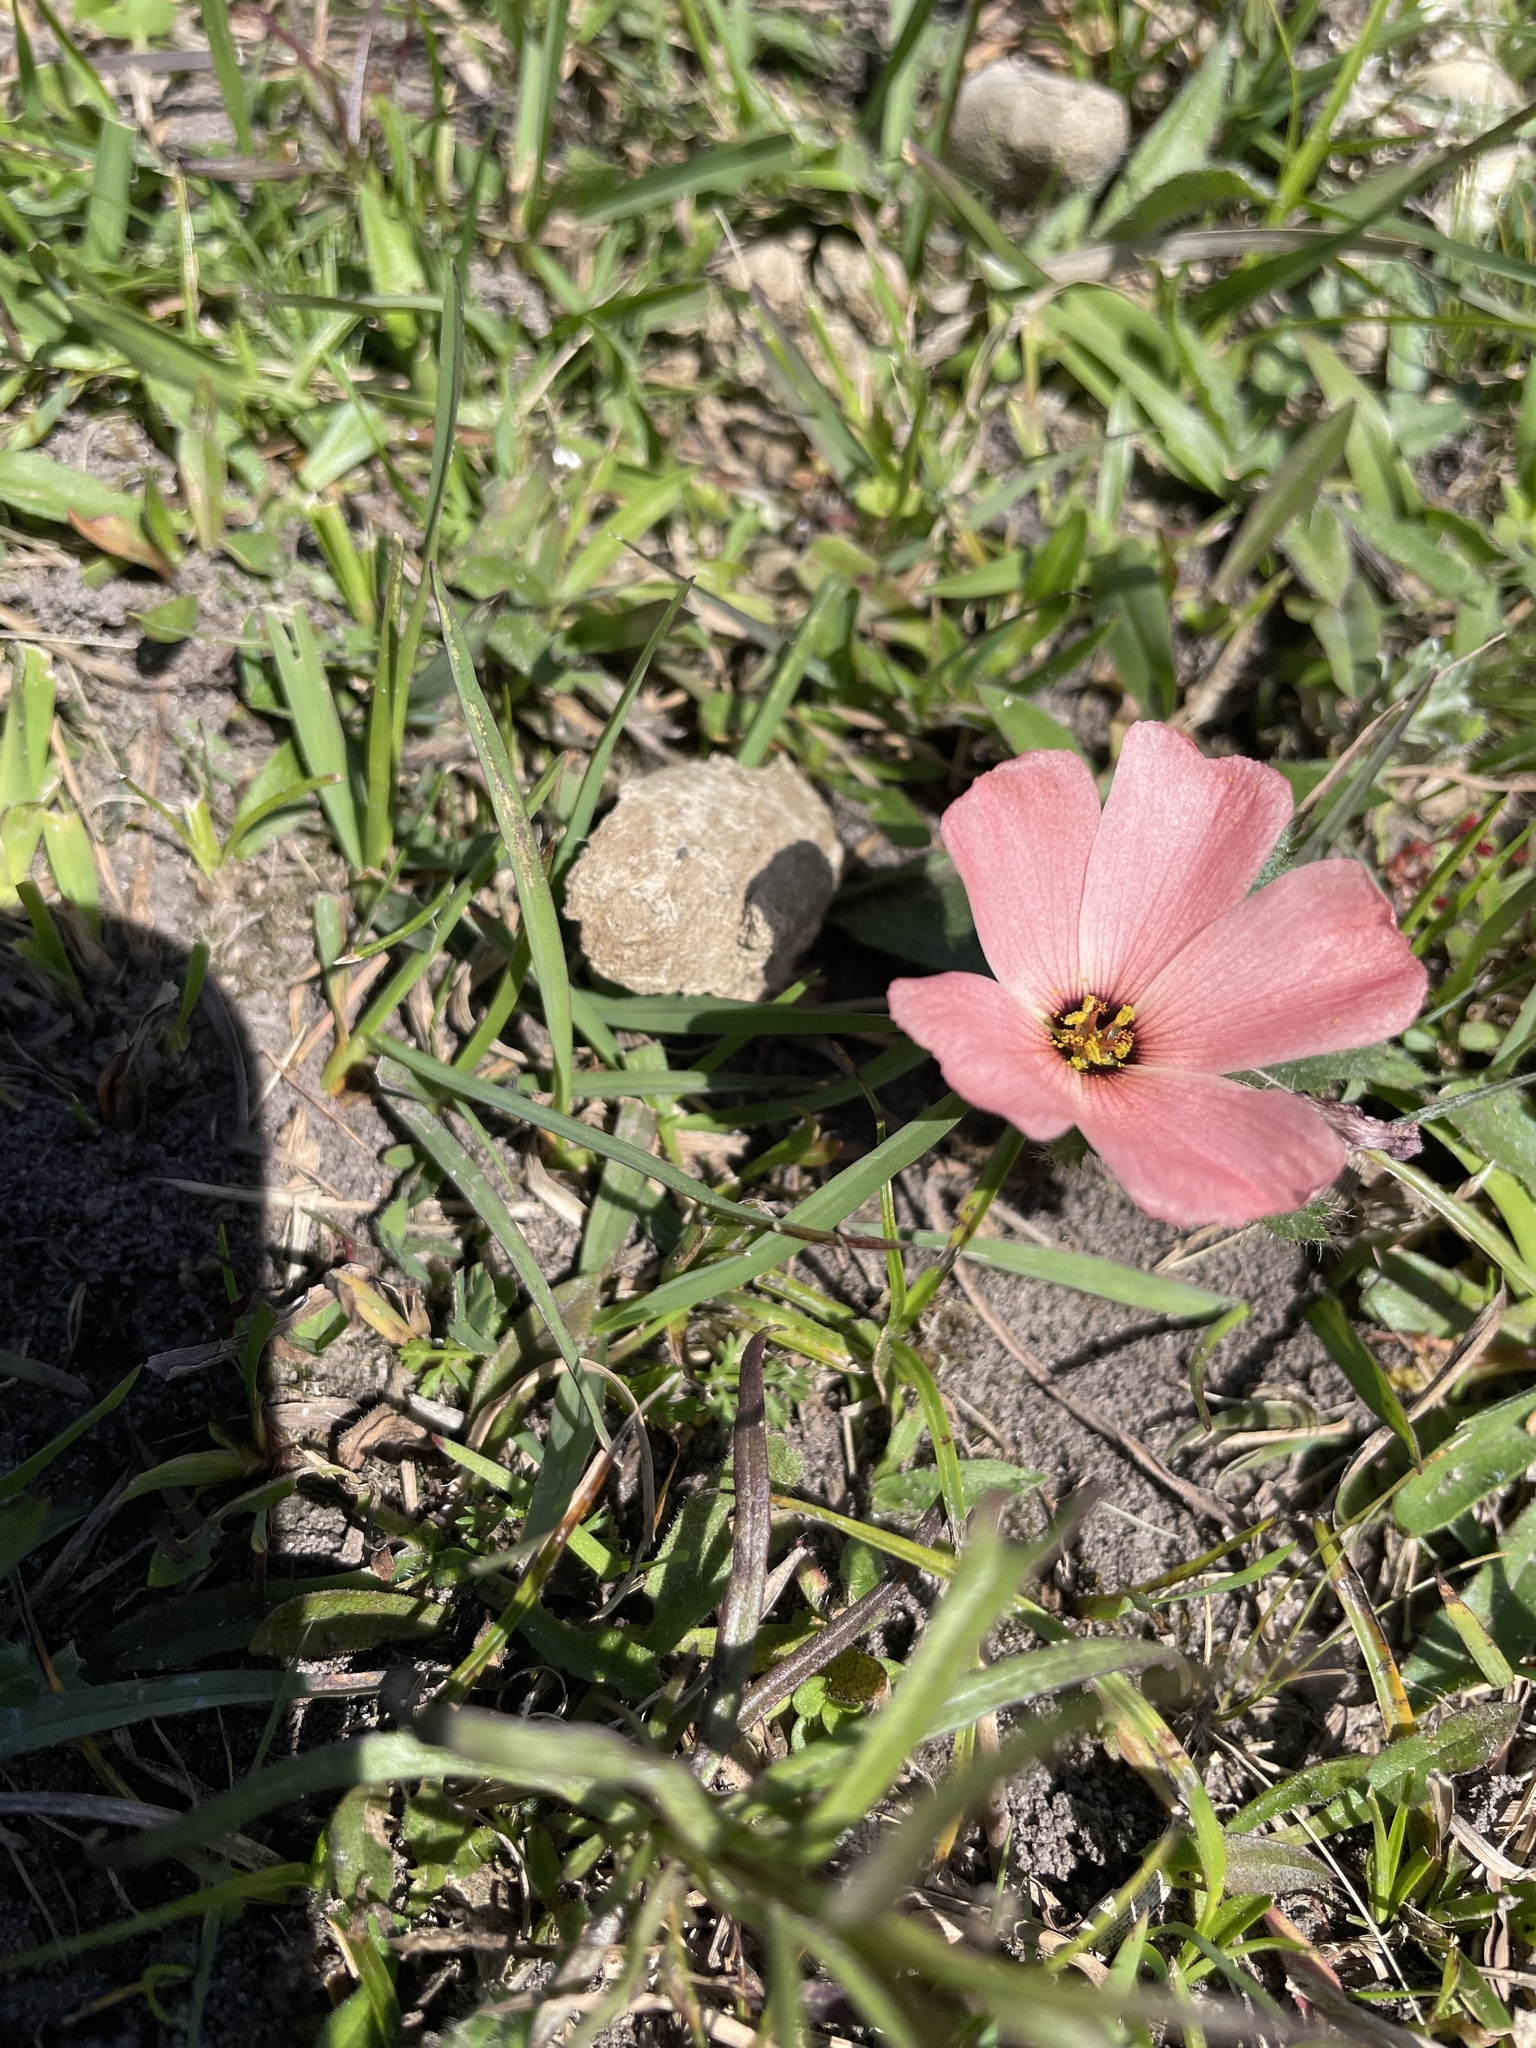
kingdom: Plantae
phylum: Tracheophyta
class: Magnoliopsida
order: Malpighiales
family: Turneraceae
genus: Turnera
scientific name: Turnera sidoides
